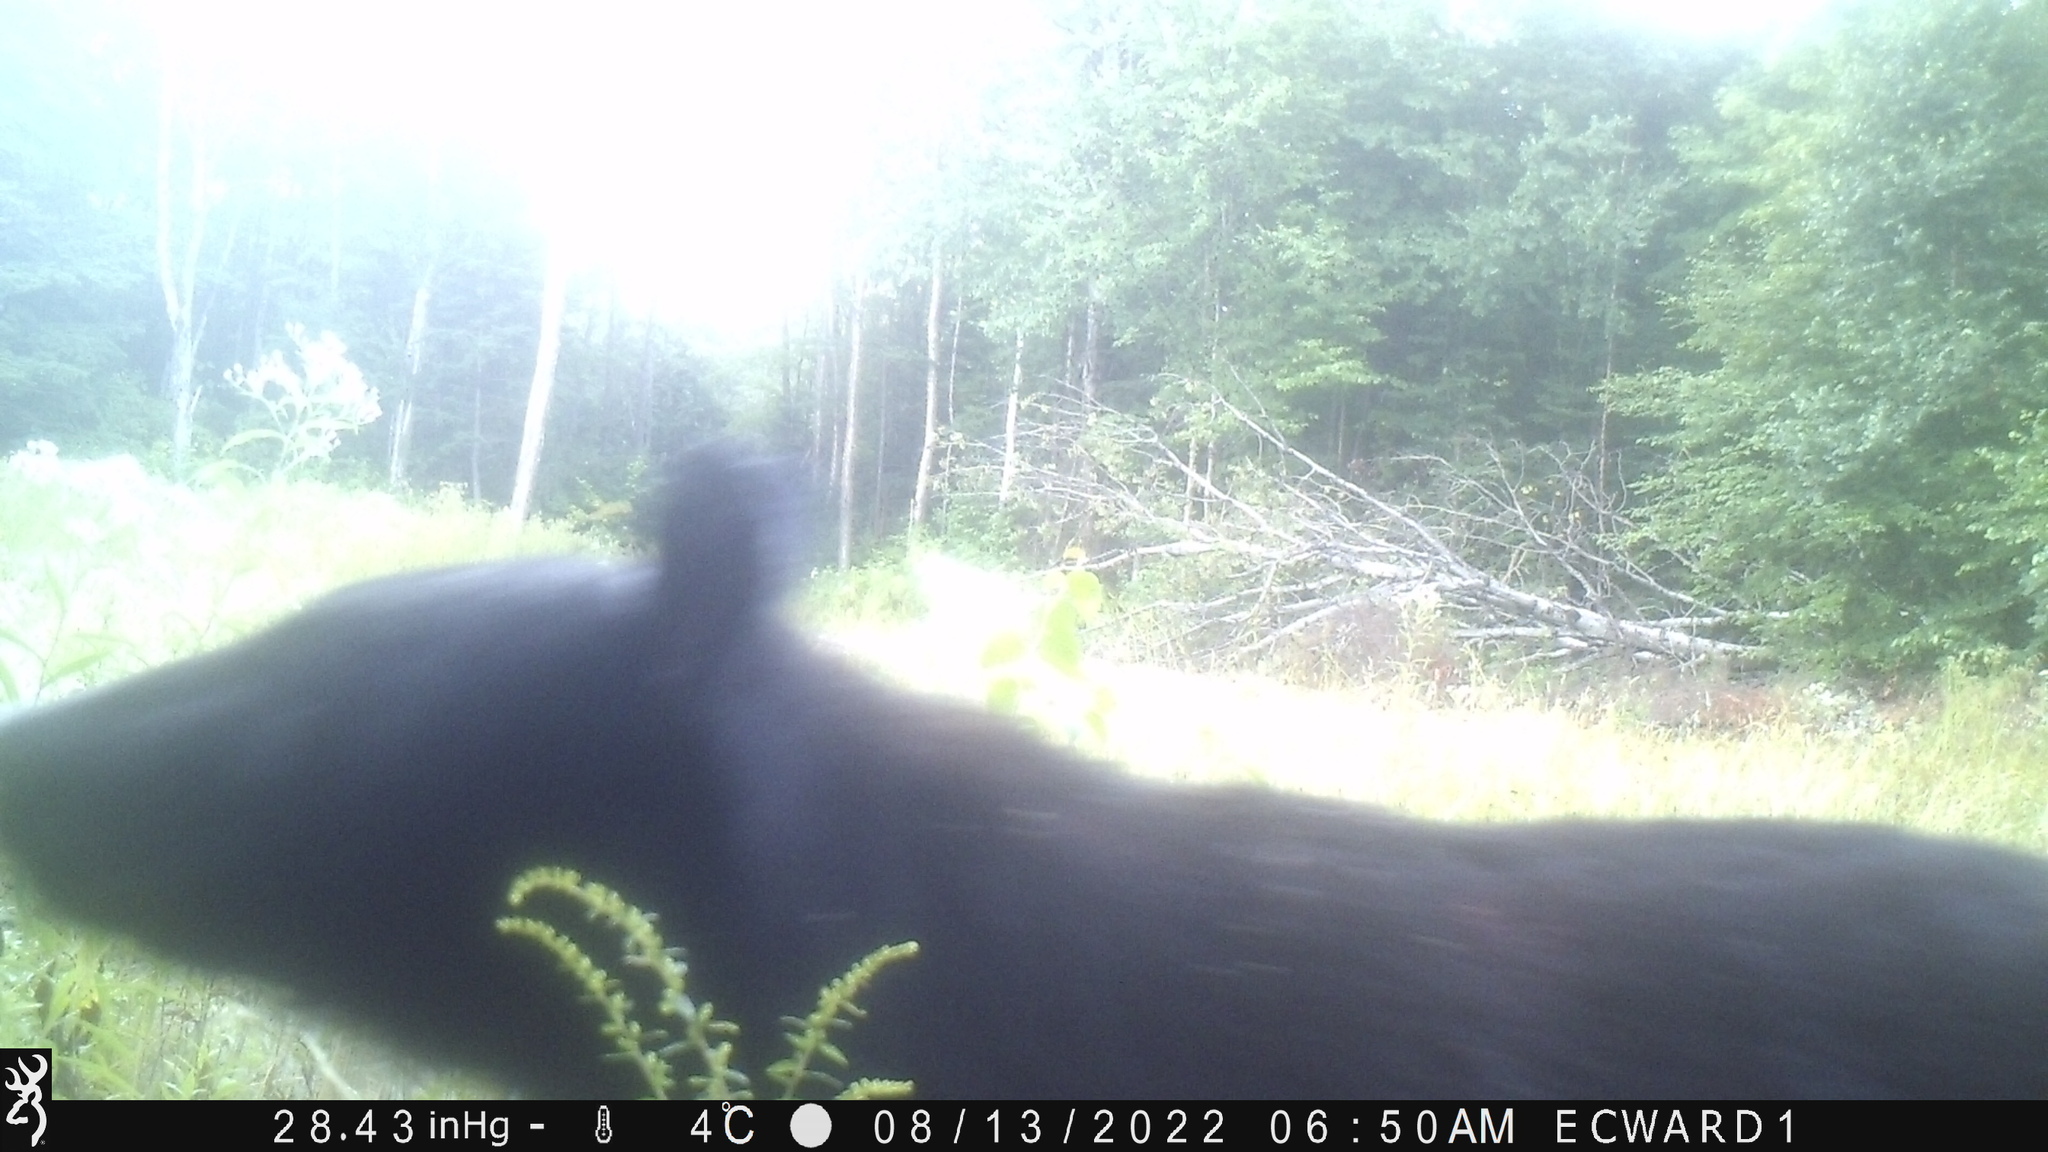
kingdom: Animalia
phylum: Chordata
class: Mammalia
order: Carnivora
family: Ursidae
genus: Ursus
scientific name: Ursus americanus
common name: American black bear
